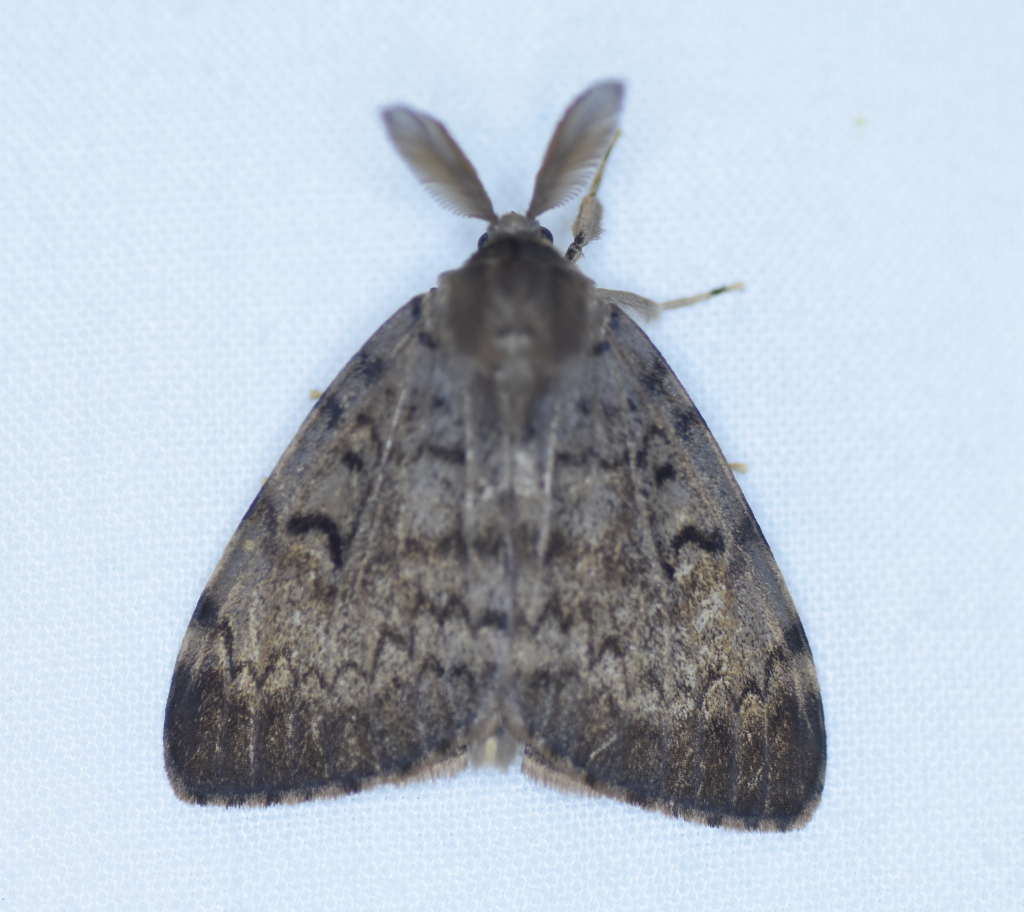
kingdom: Animalia
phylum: Arthropoda
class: Insecta
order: Lepidoptera
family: Erebidae
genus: Lymantria
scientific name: Lymantria dispar
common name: Gypsy moth
